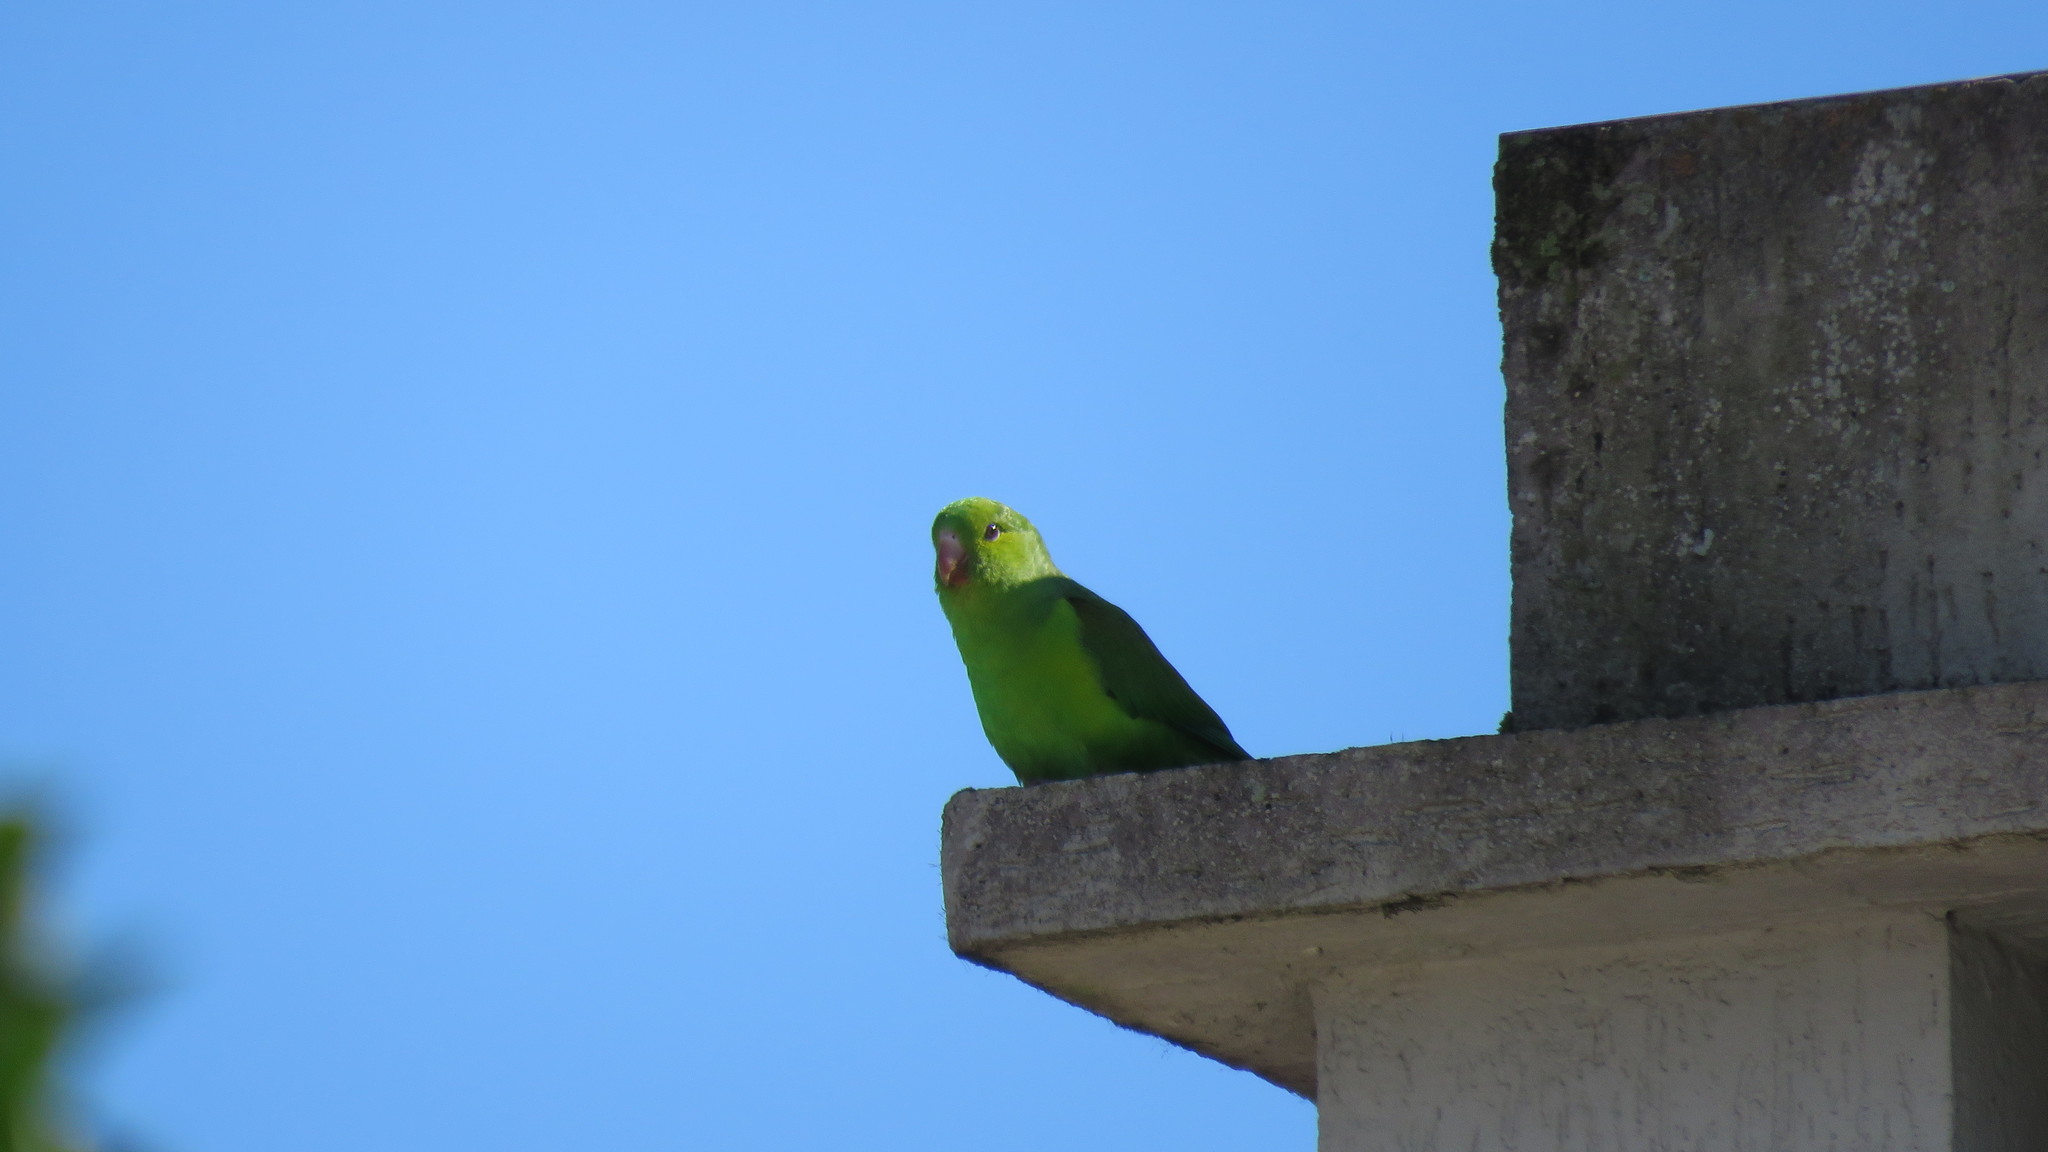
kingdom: Animalia
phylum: Chordata
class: Aves
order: Psittaciformes
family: Psittacidae
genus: Brotogeris
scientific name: Brotogeris tirica
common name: Plain parakeet
